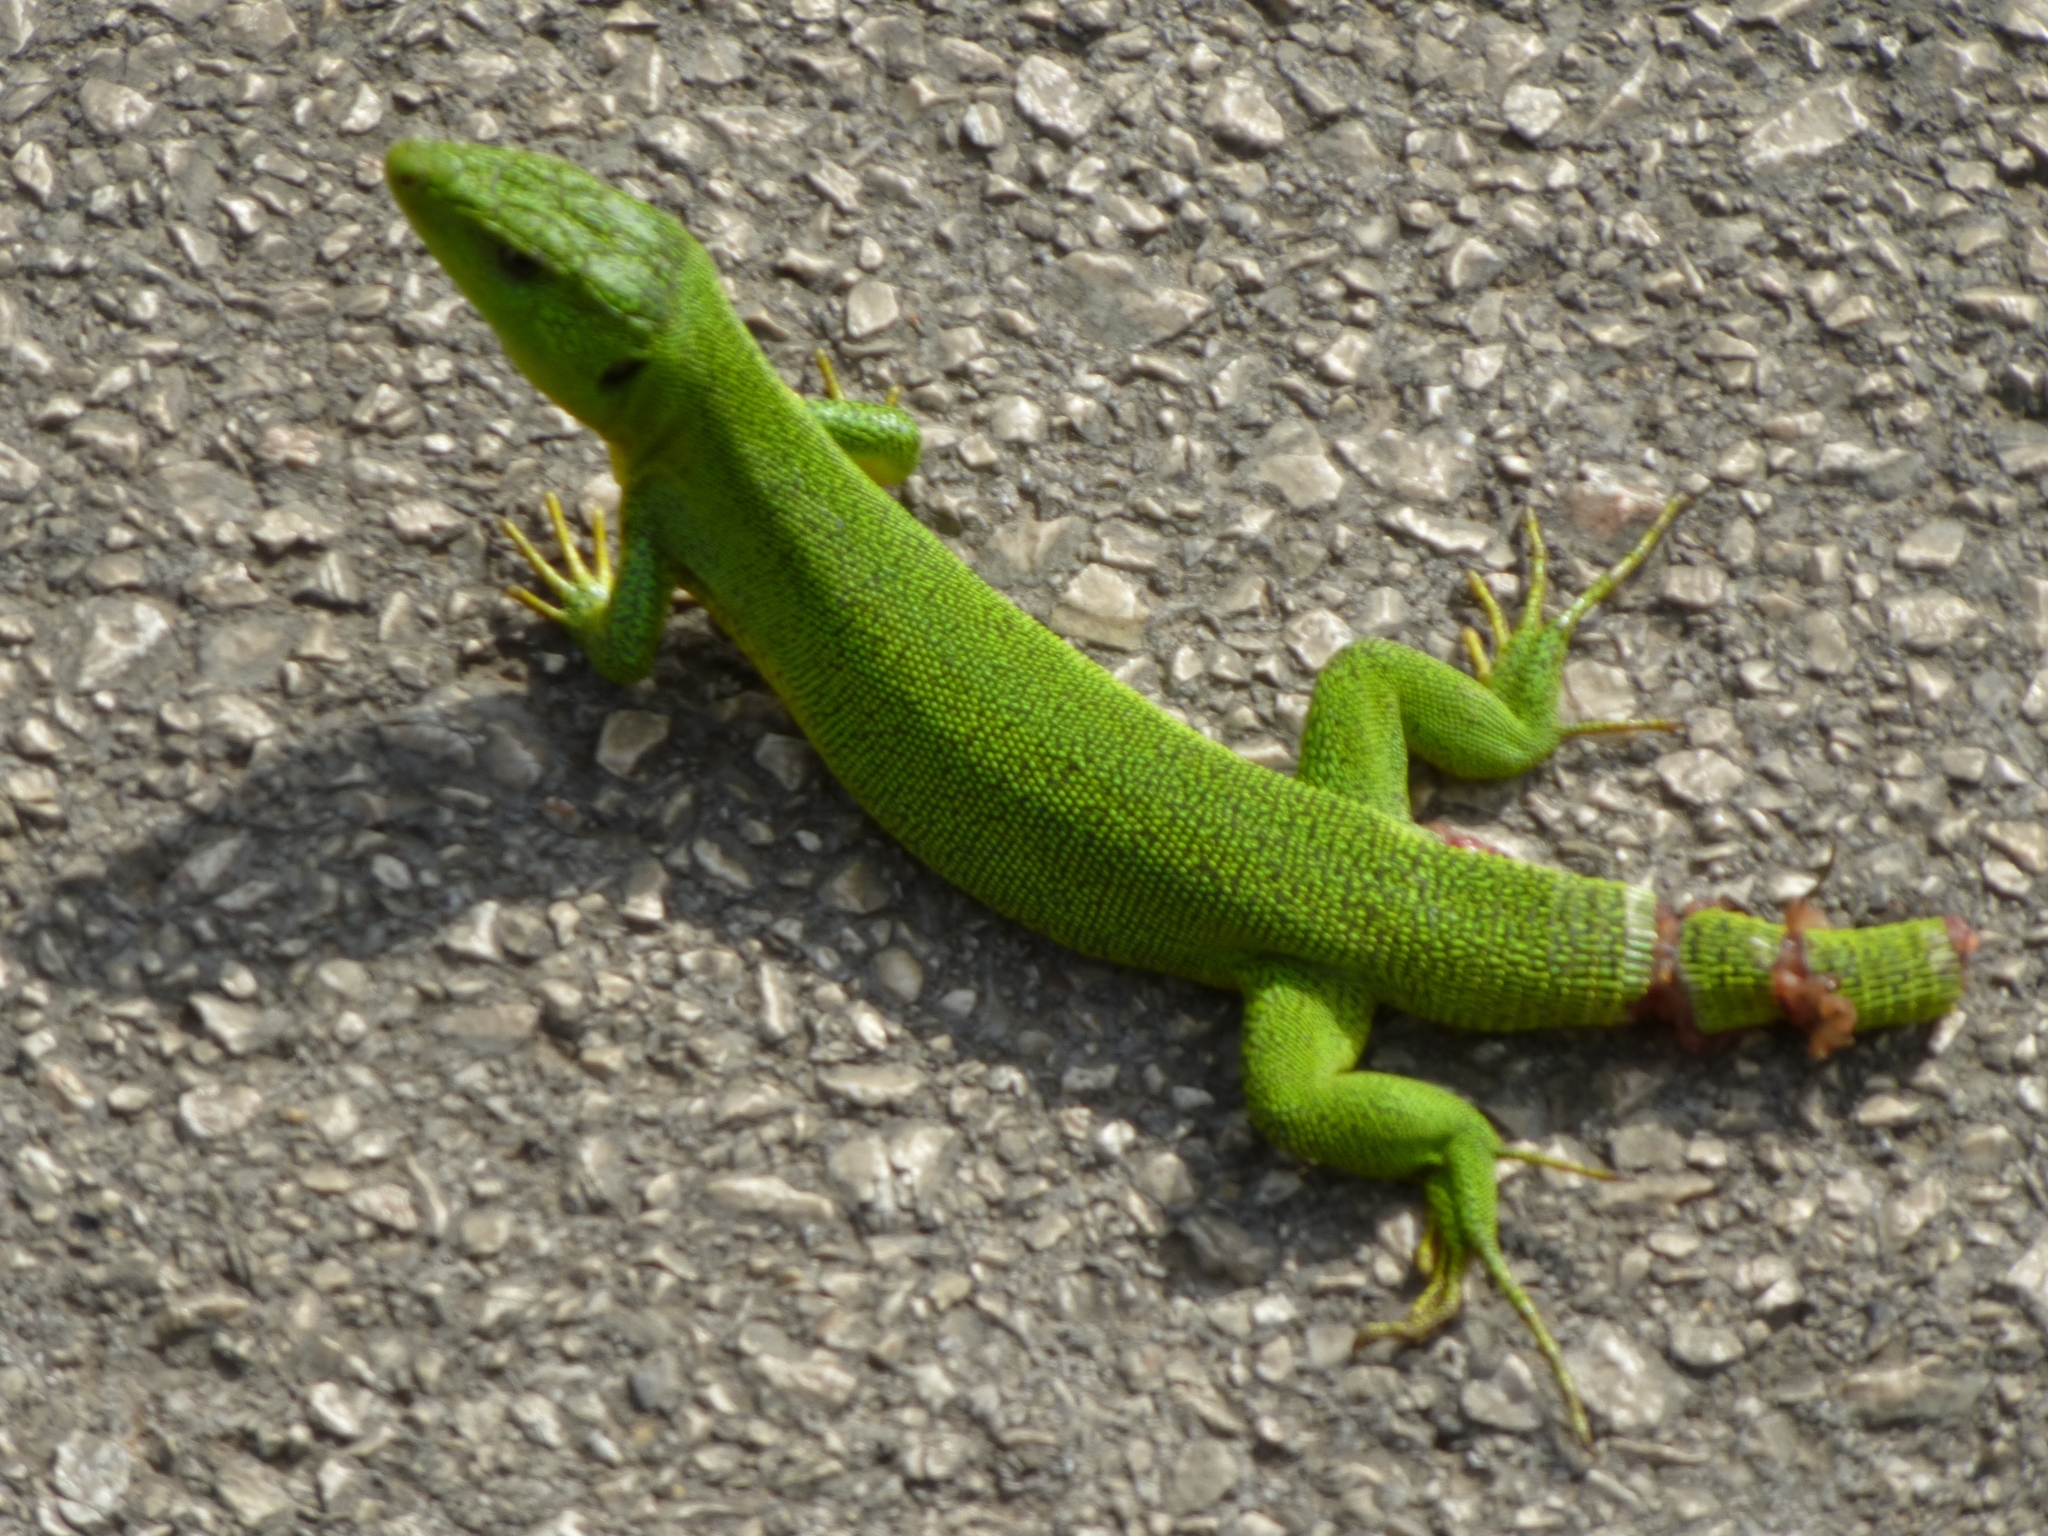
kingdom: Animalia
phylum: Chordata
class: Squamata
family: Lacertidae
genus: Lacerta
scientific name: Lacerta trilineata
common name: Balkan green lizard
